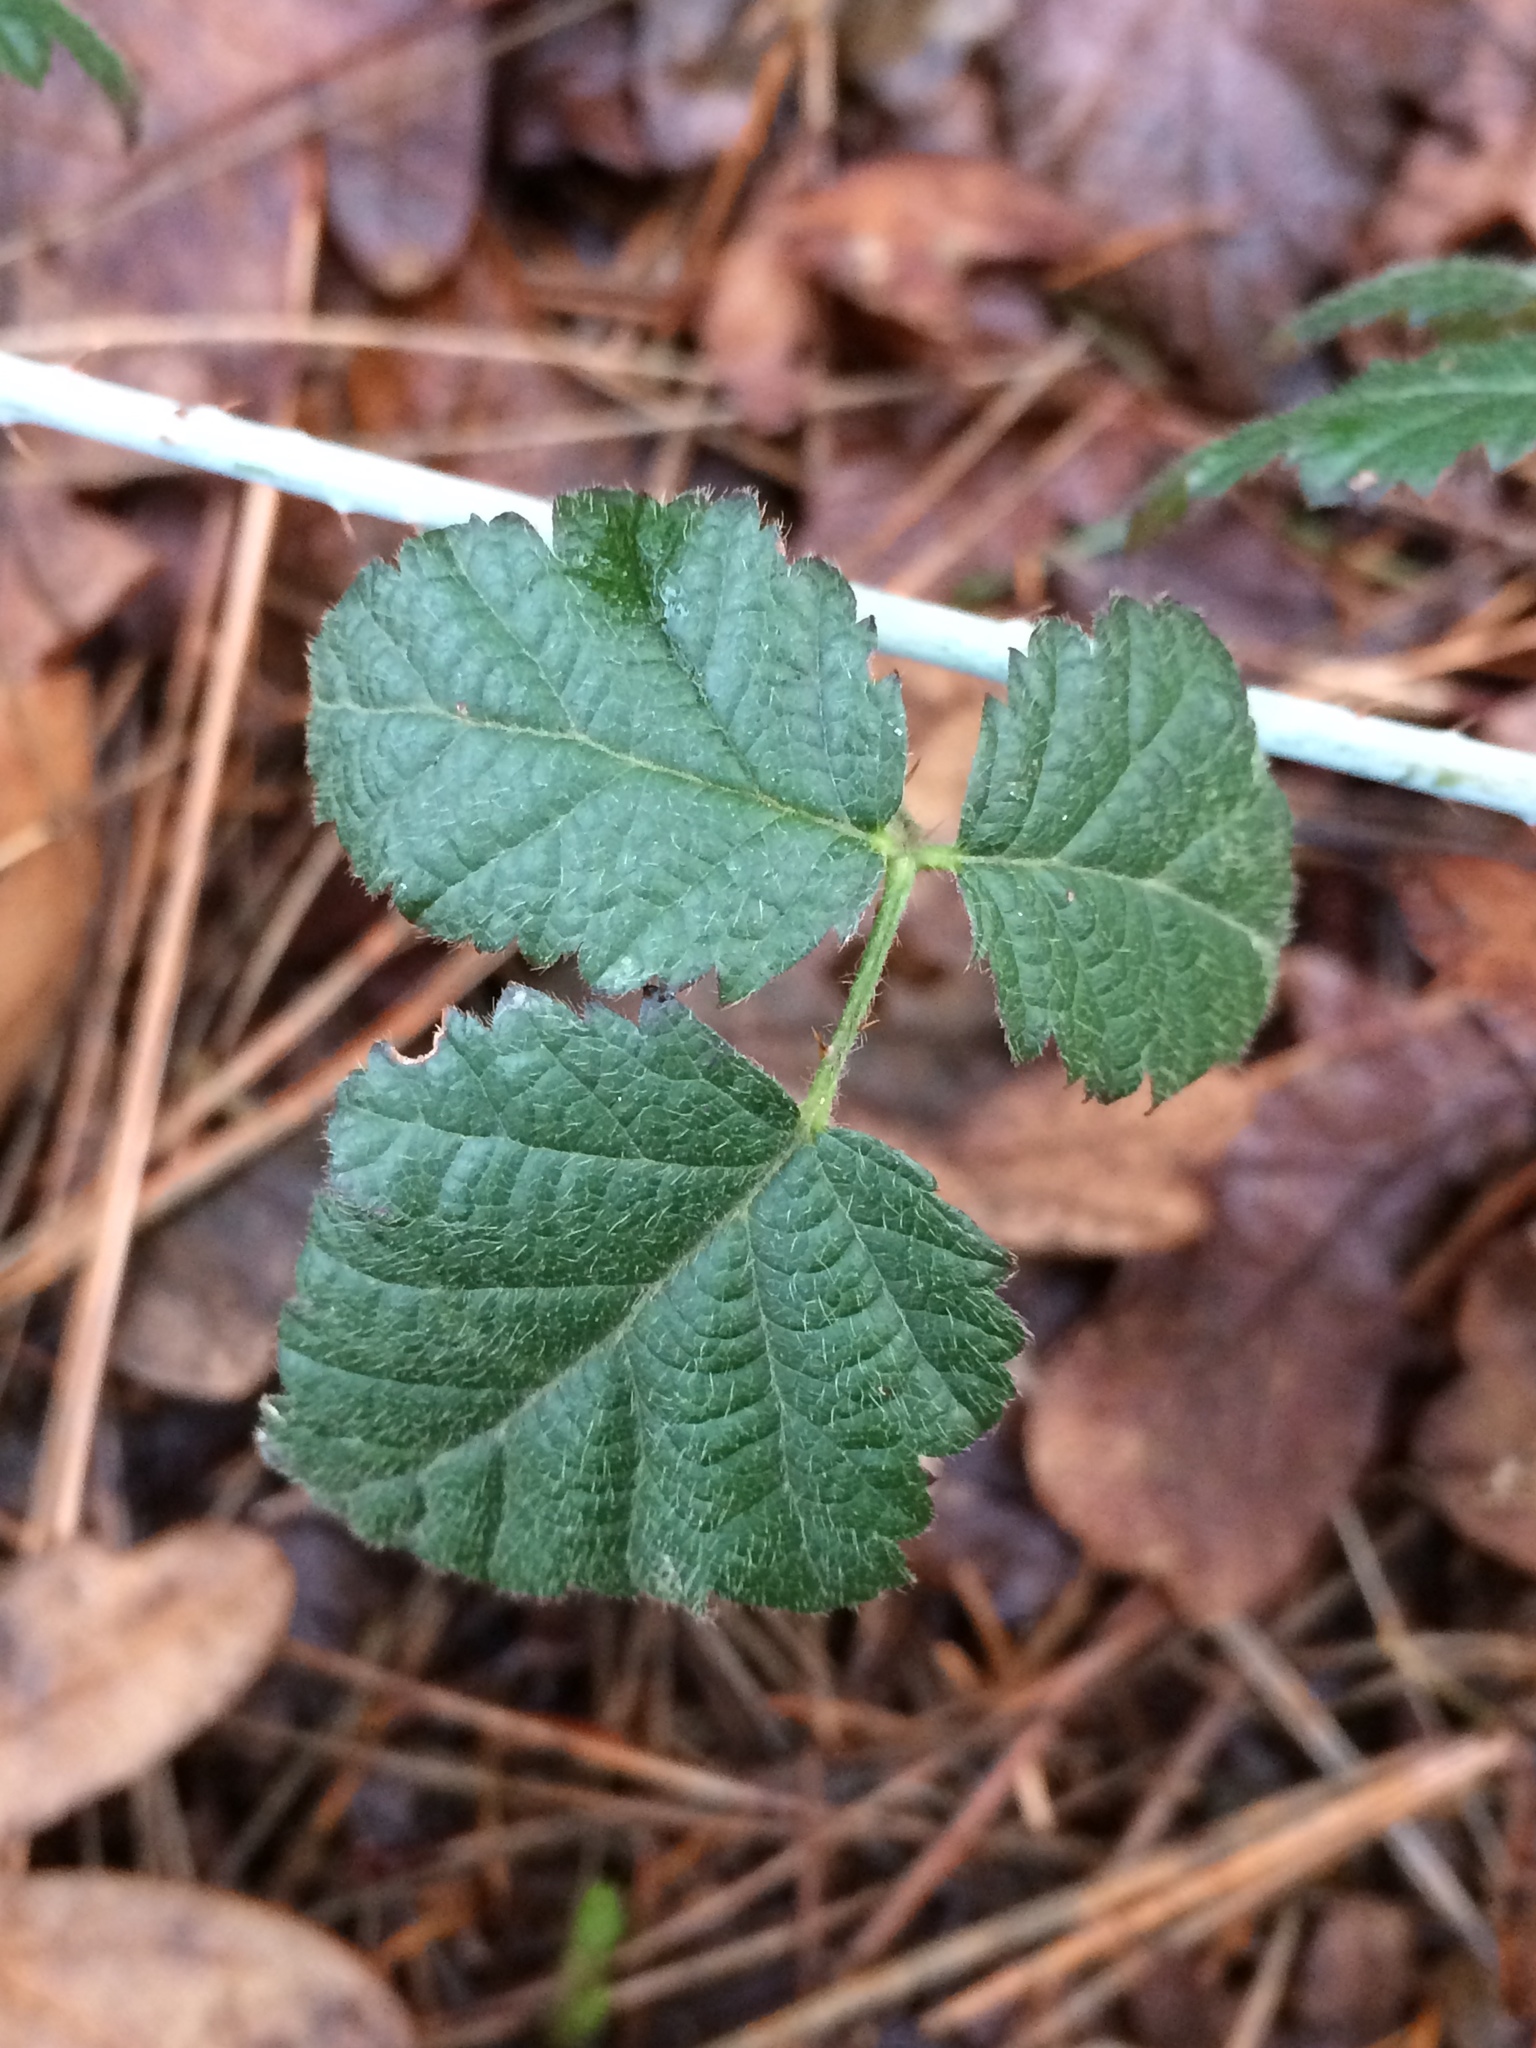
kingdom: Plantae
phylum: Tracheophyta
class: Magnoliopsida
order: Rosales
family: Rosaceae
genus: Rubus
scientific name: Rubus ursinus
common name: Pacific blackberry
